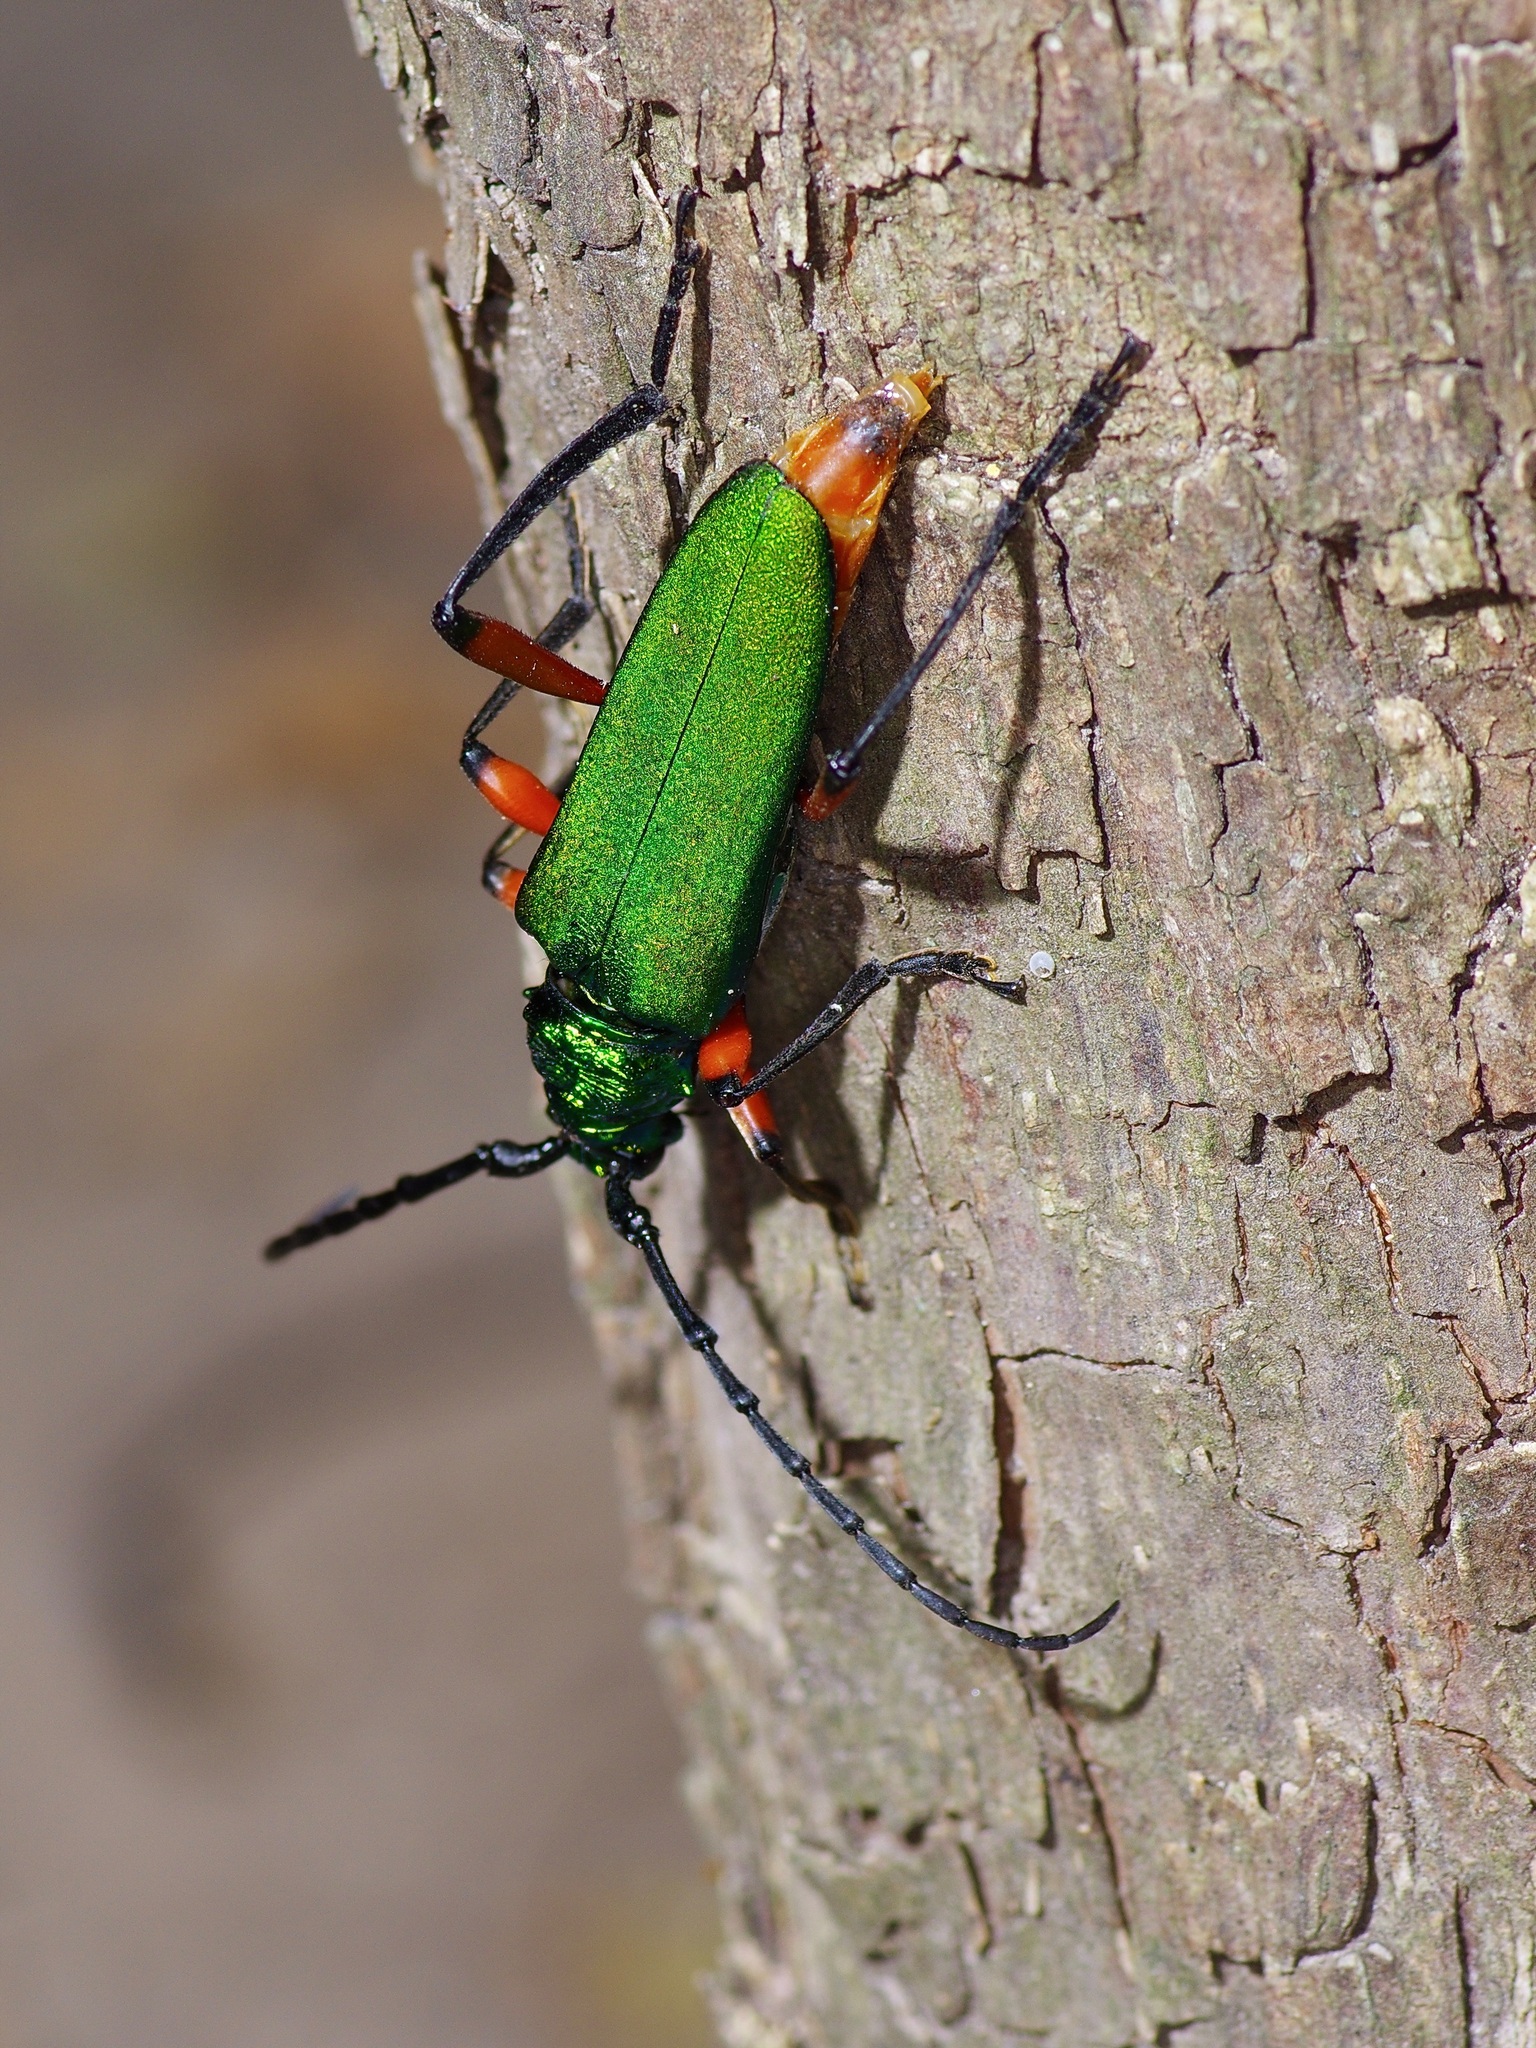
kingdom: Animalia
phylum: Arthropoda
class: Insecta
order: Coleoptera
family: Cerambycidae
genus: Plinthocoelium
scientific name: Plinthocoelium suaveolens
